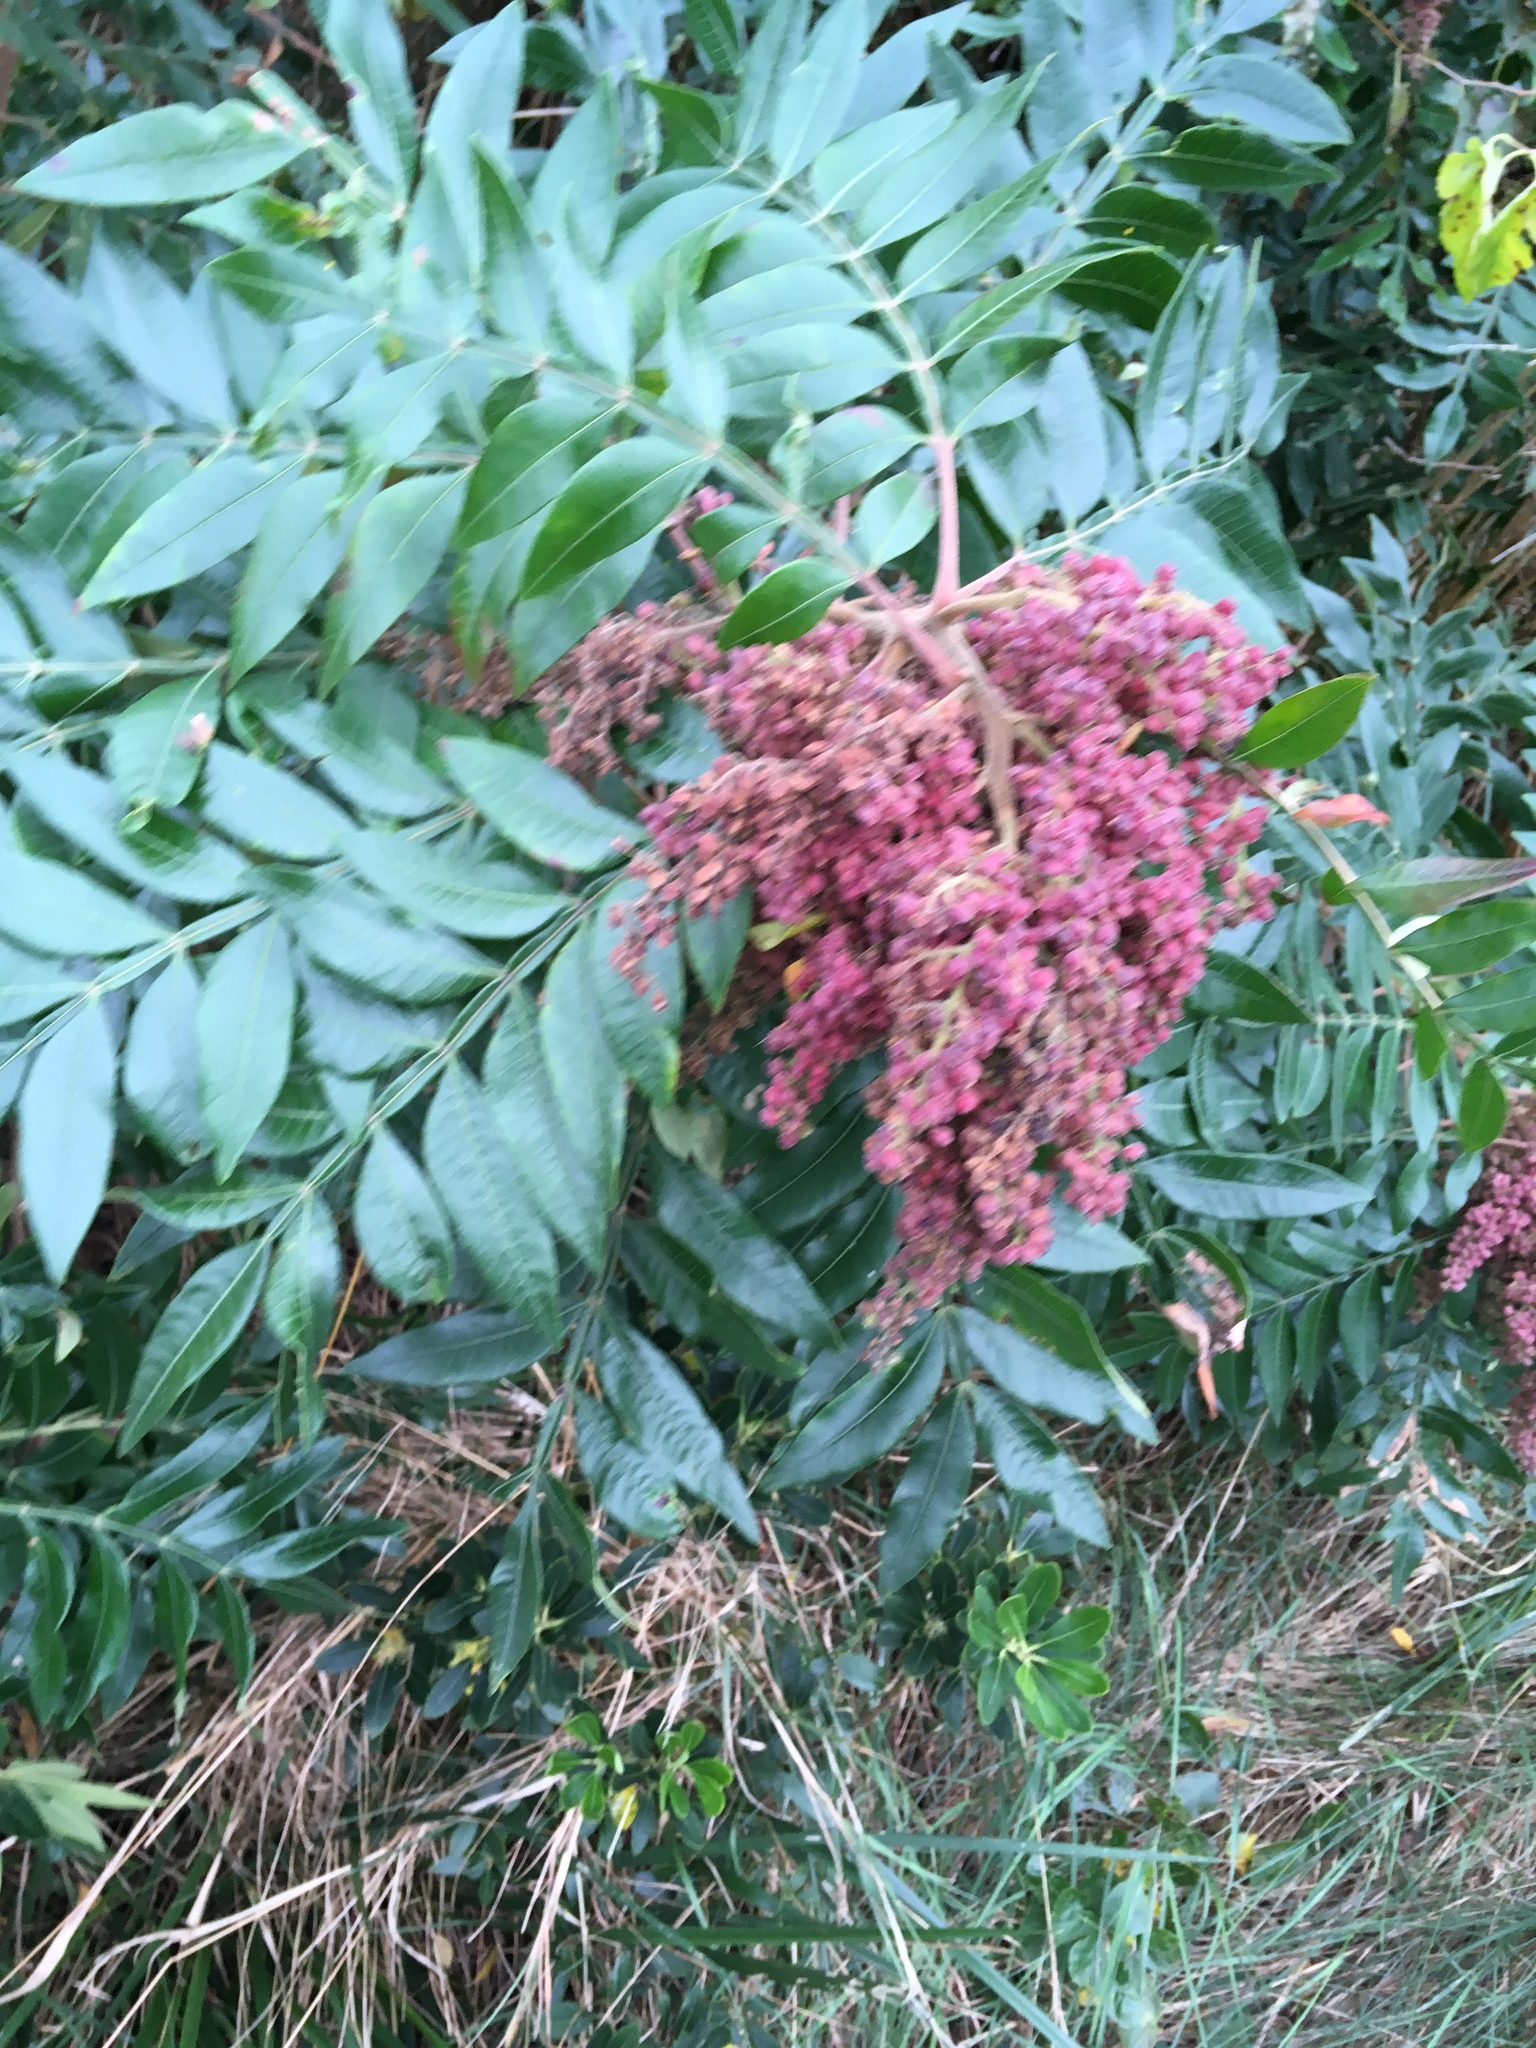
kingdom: Plantae
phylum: Tracheophyta
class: Magnoliopsida
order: Sapindales
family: Anacardiaceae
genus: Rhus
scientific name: Rhus copallina
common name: Shining sumac
